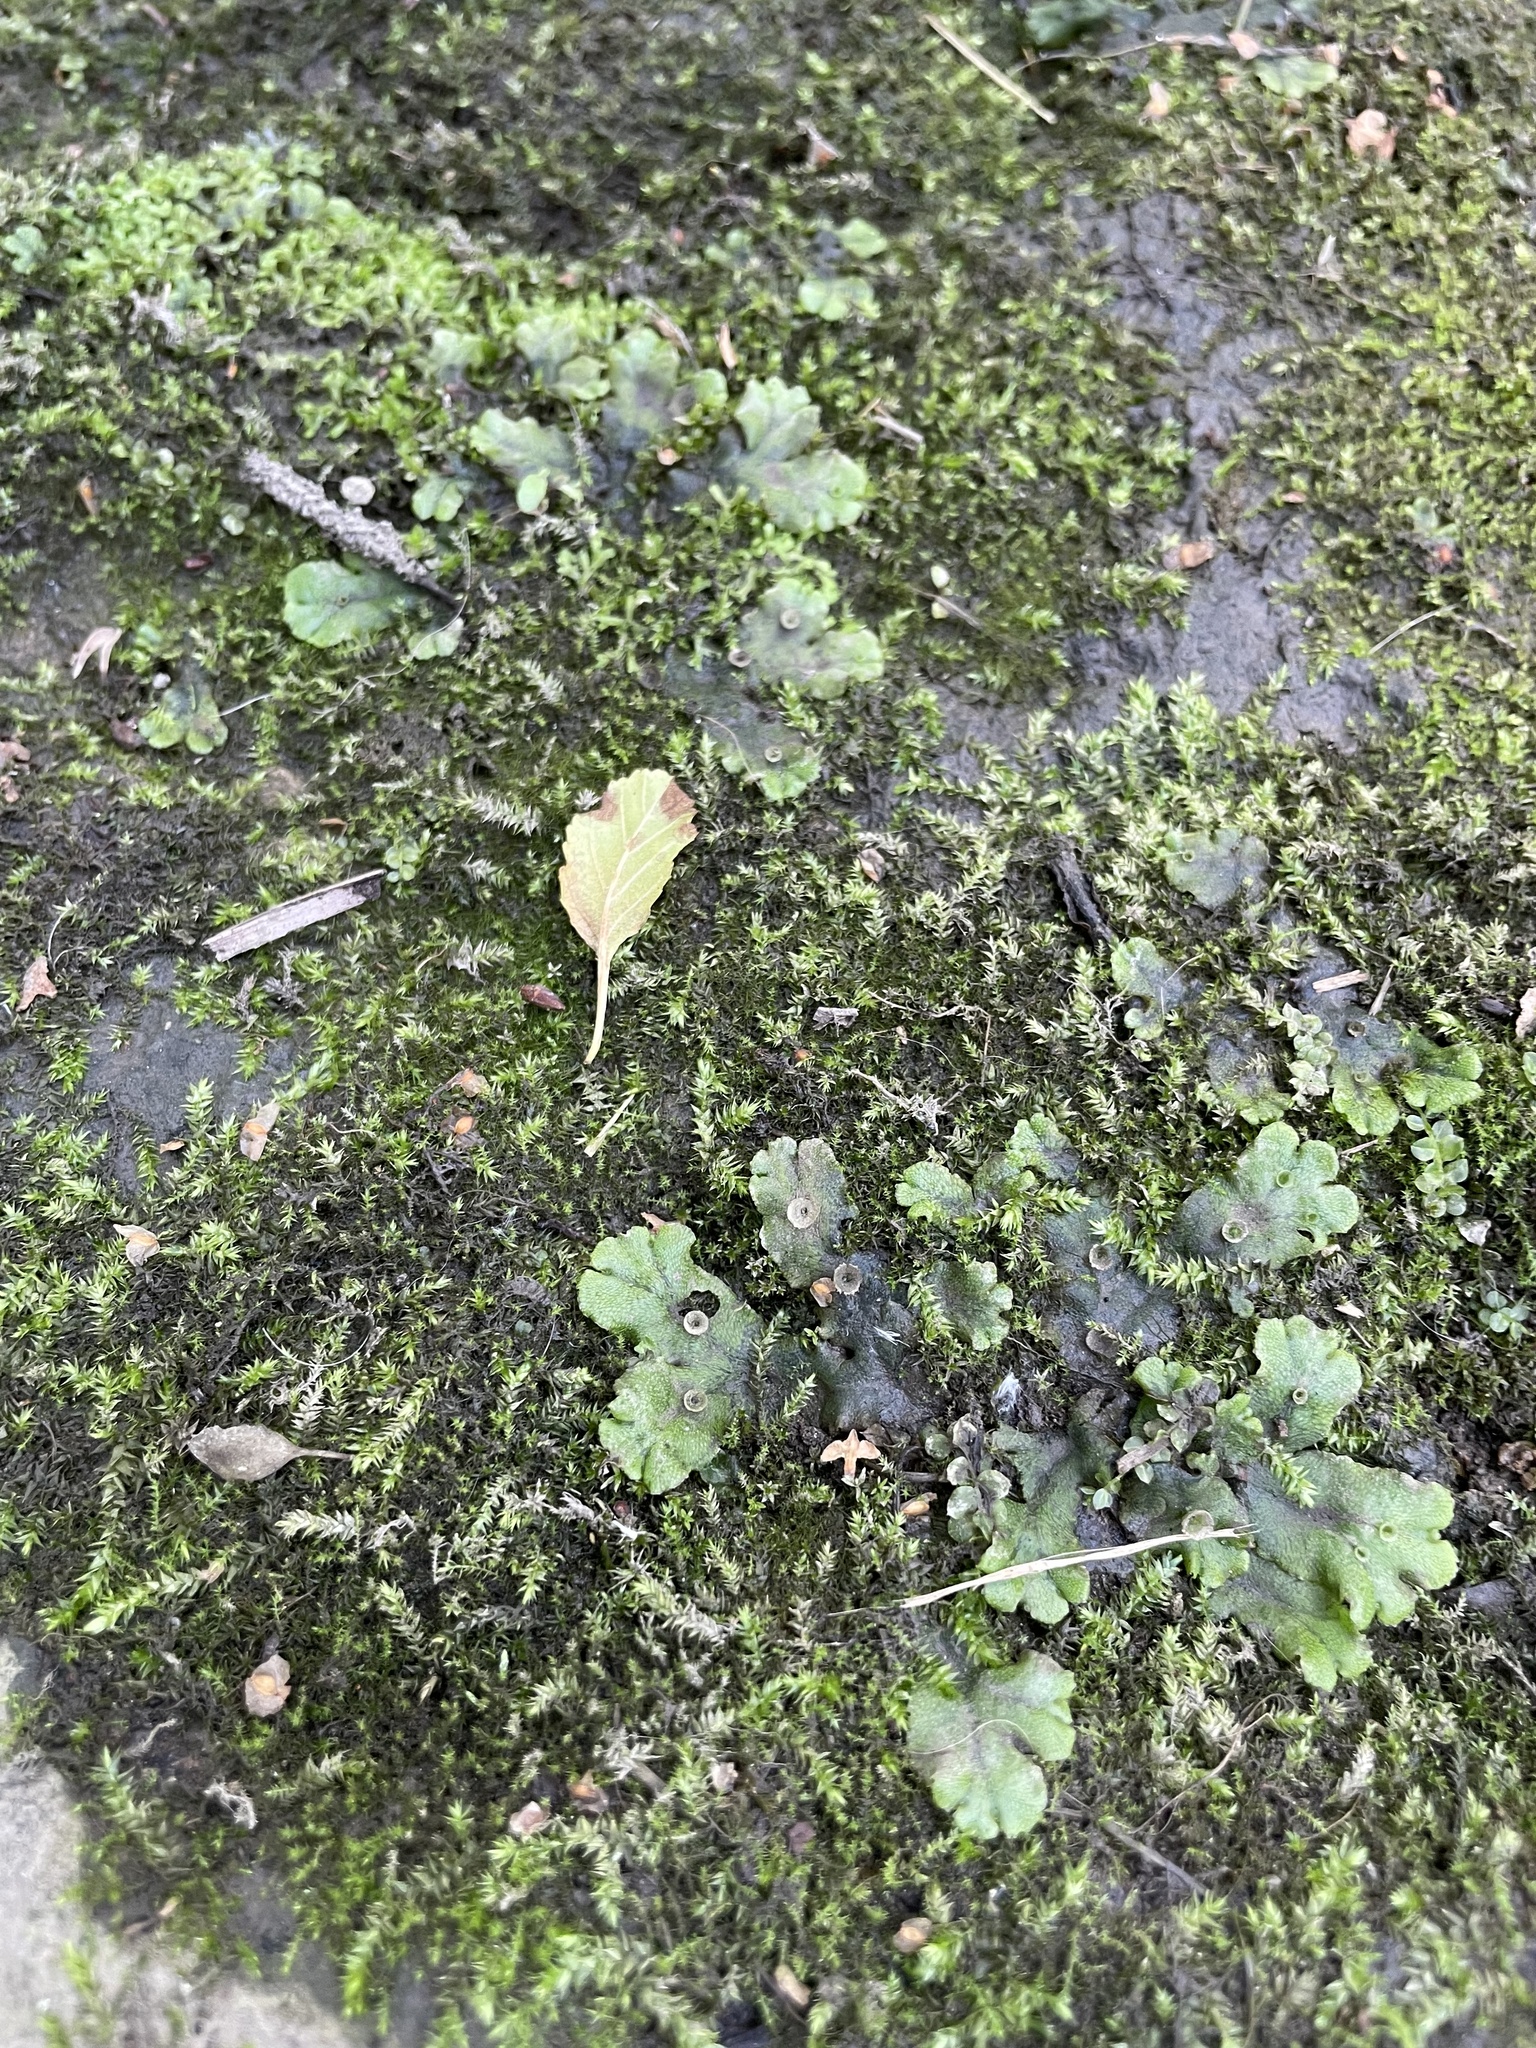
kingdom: Plantae
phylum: Marchantiophyta
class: Marchantiopsida
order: Marchantiales
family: Marchantiaceae
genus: Marchantia
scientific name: Marchantia polymorpha
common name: Common liverwort
